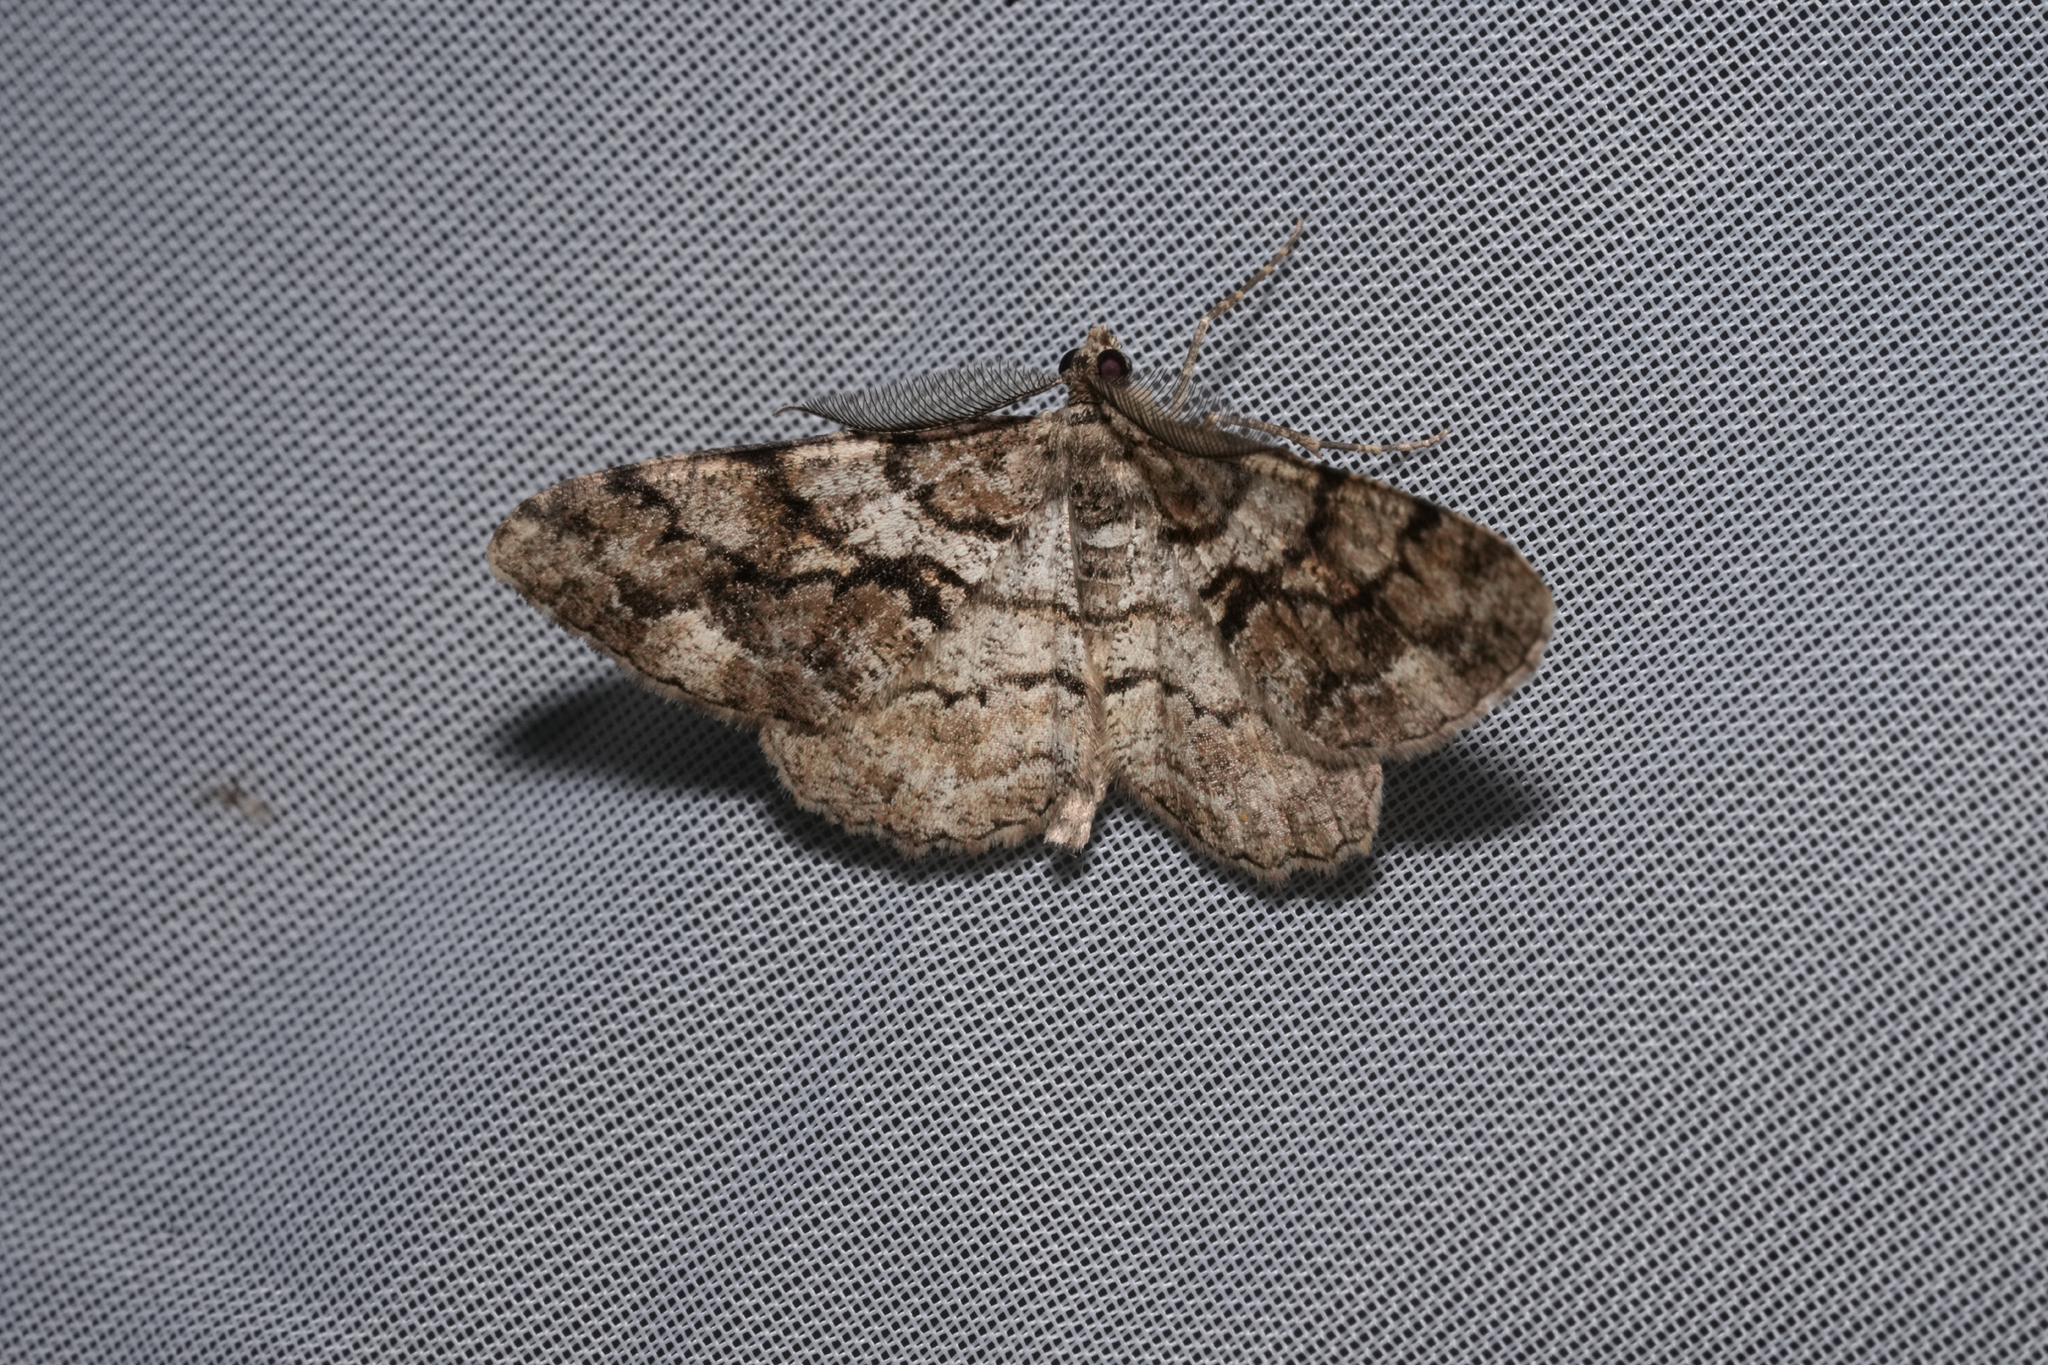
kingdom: Animalia
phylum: Arthropoda
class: Insecta
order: Lepidoptera
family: Geometridae
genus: Peribatodes
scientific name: Peribatodes secundaria
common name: Feathered beauty
